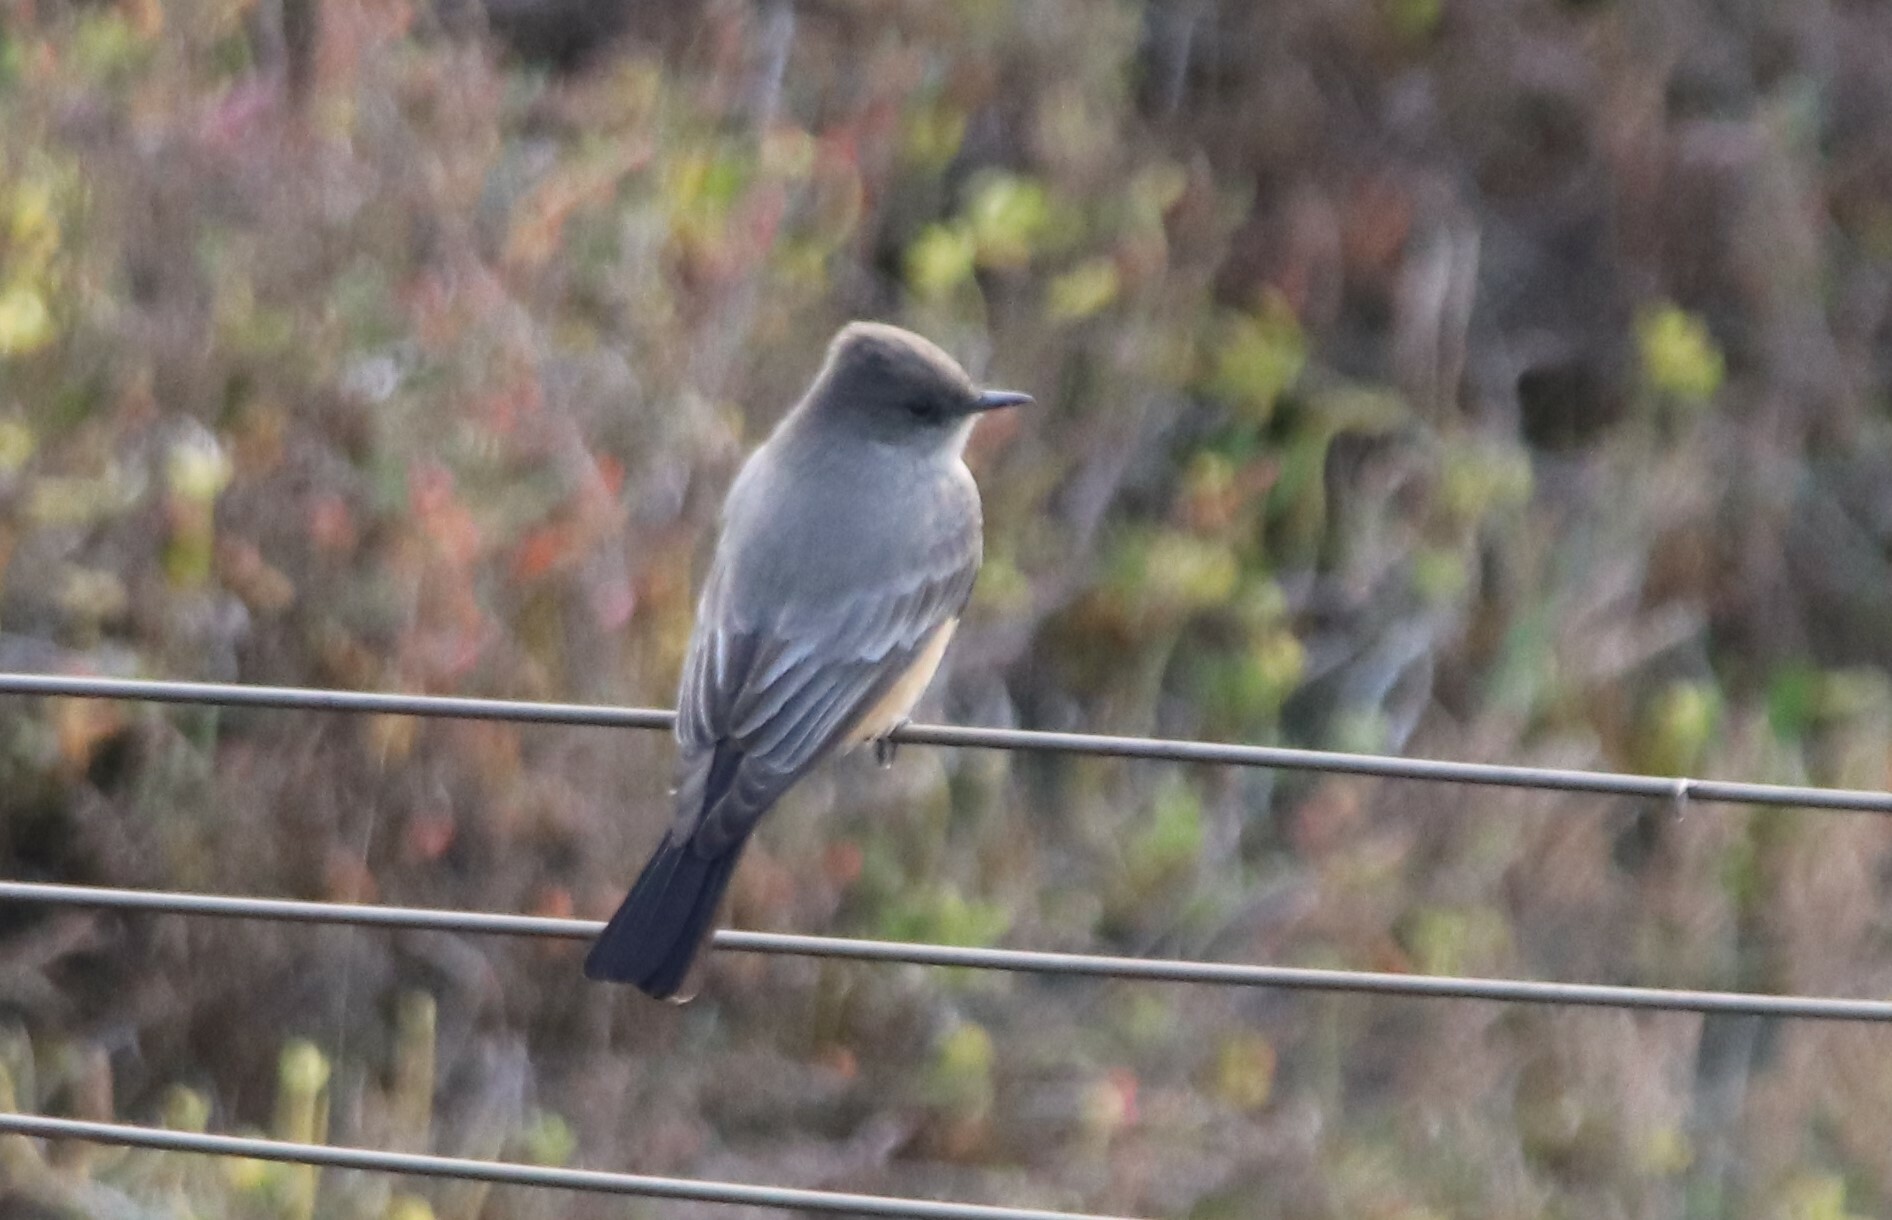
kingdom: Animalia
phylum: Chordata
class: Aves
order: Passeriformes
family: Tyrannidae
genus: Sayornis
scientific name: Sayornis saya
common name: Say's phoebe
